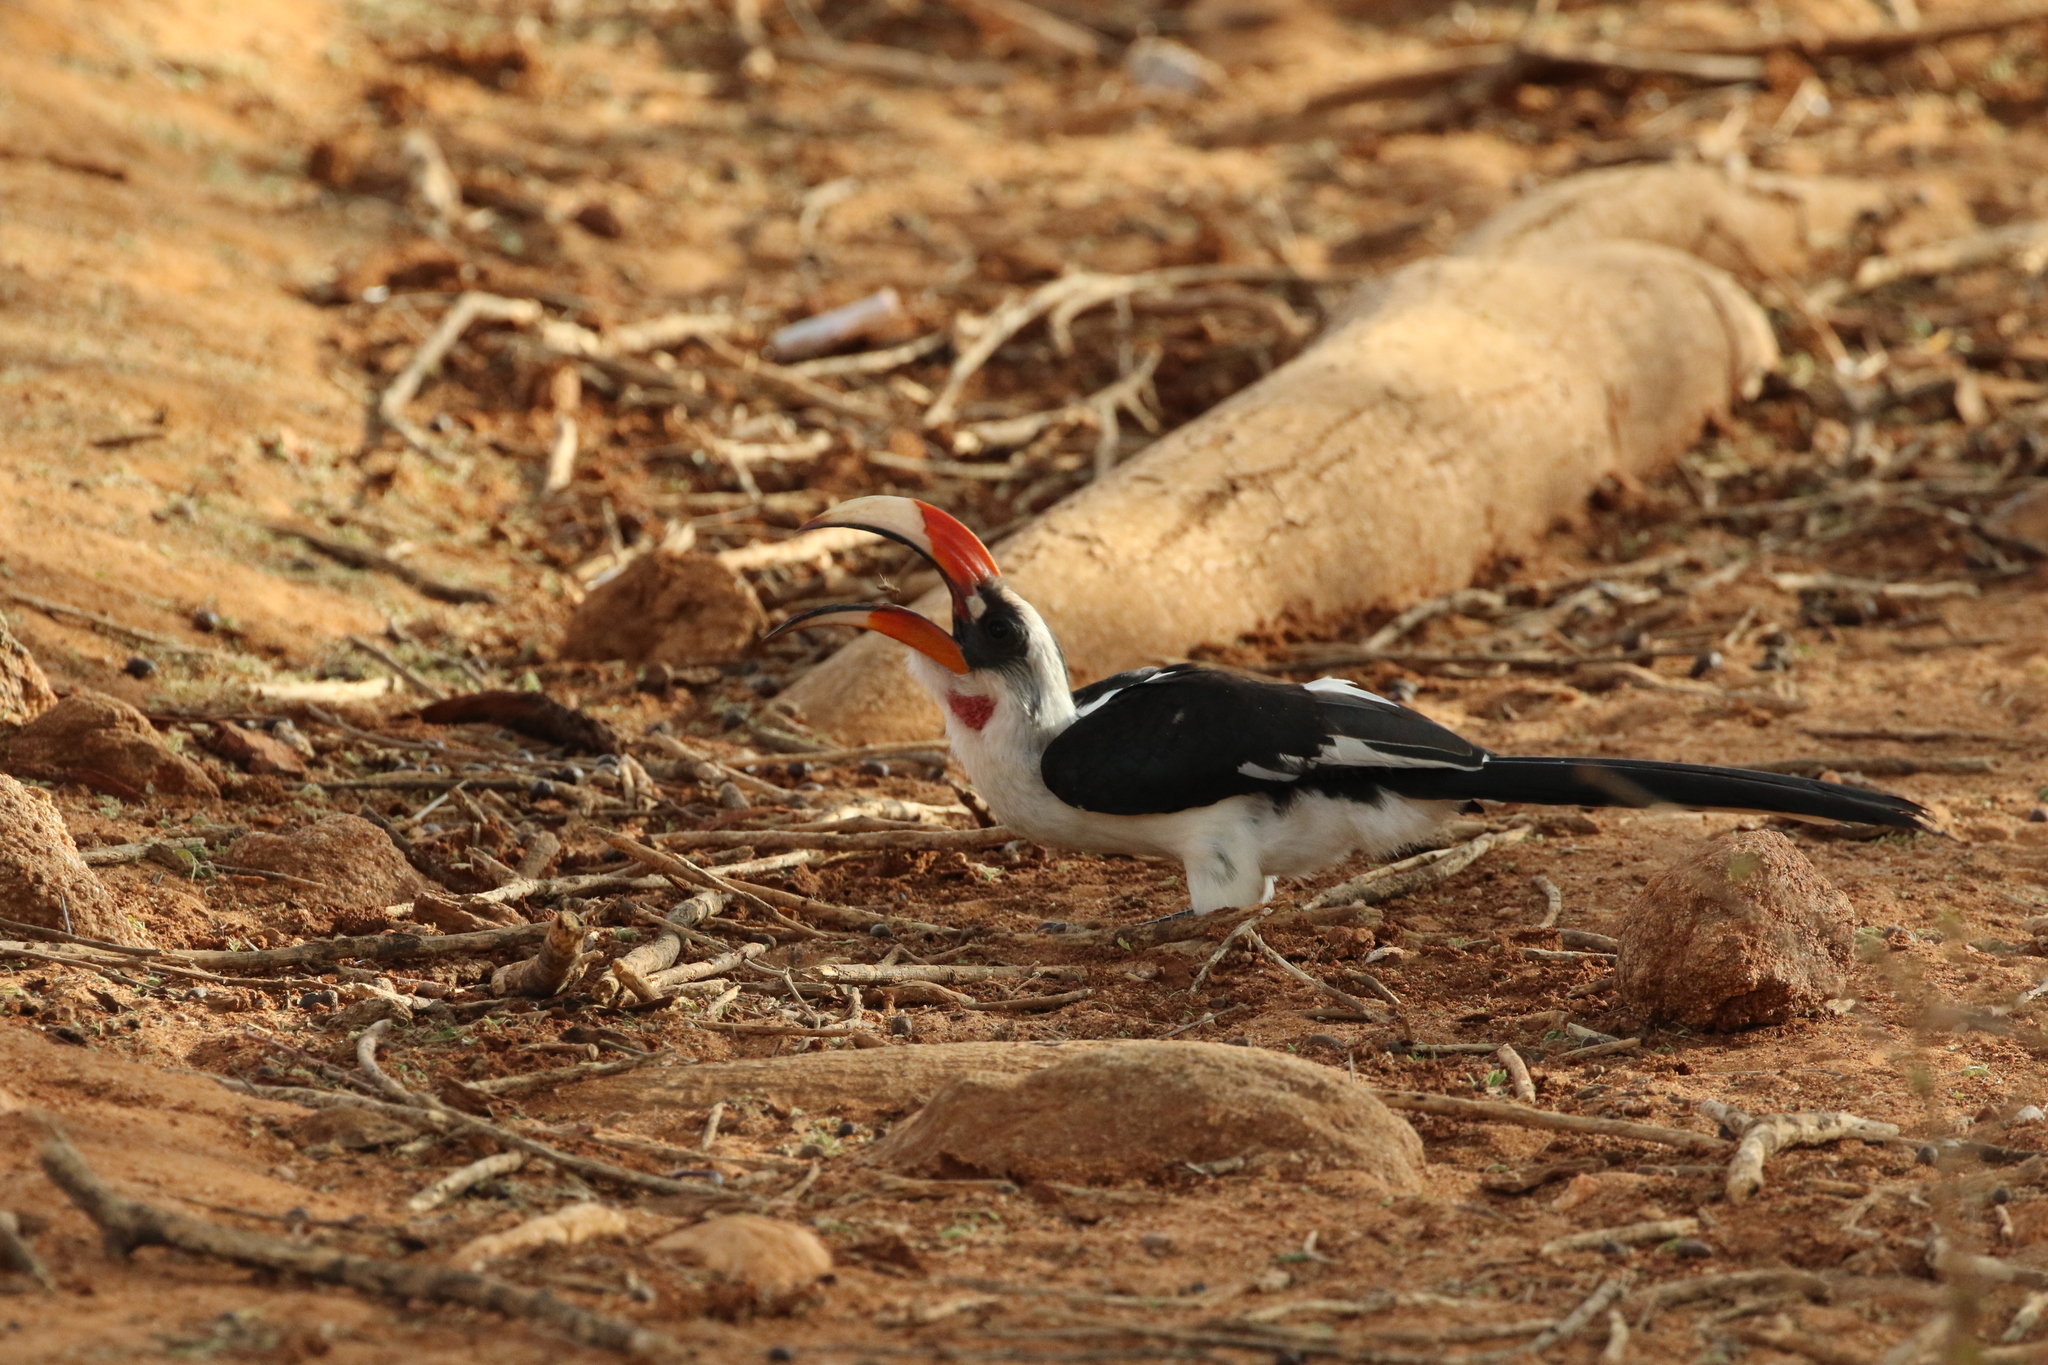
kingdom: Animalia
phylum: Chordata
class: Aves
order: Bucerotiformes
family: Bucerotidae
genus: Tockus
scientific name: Tockus deckeni
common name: Von der decken's hornbill
